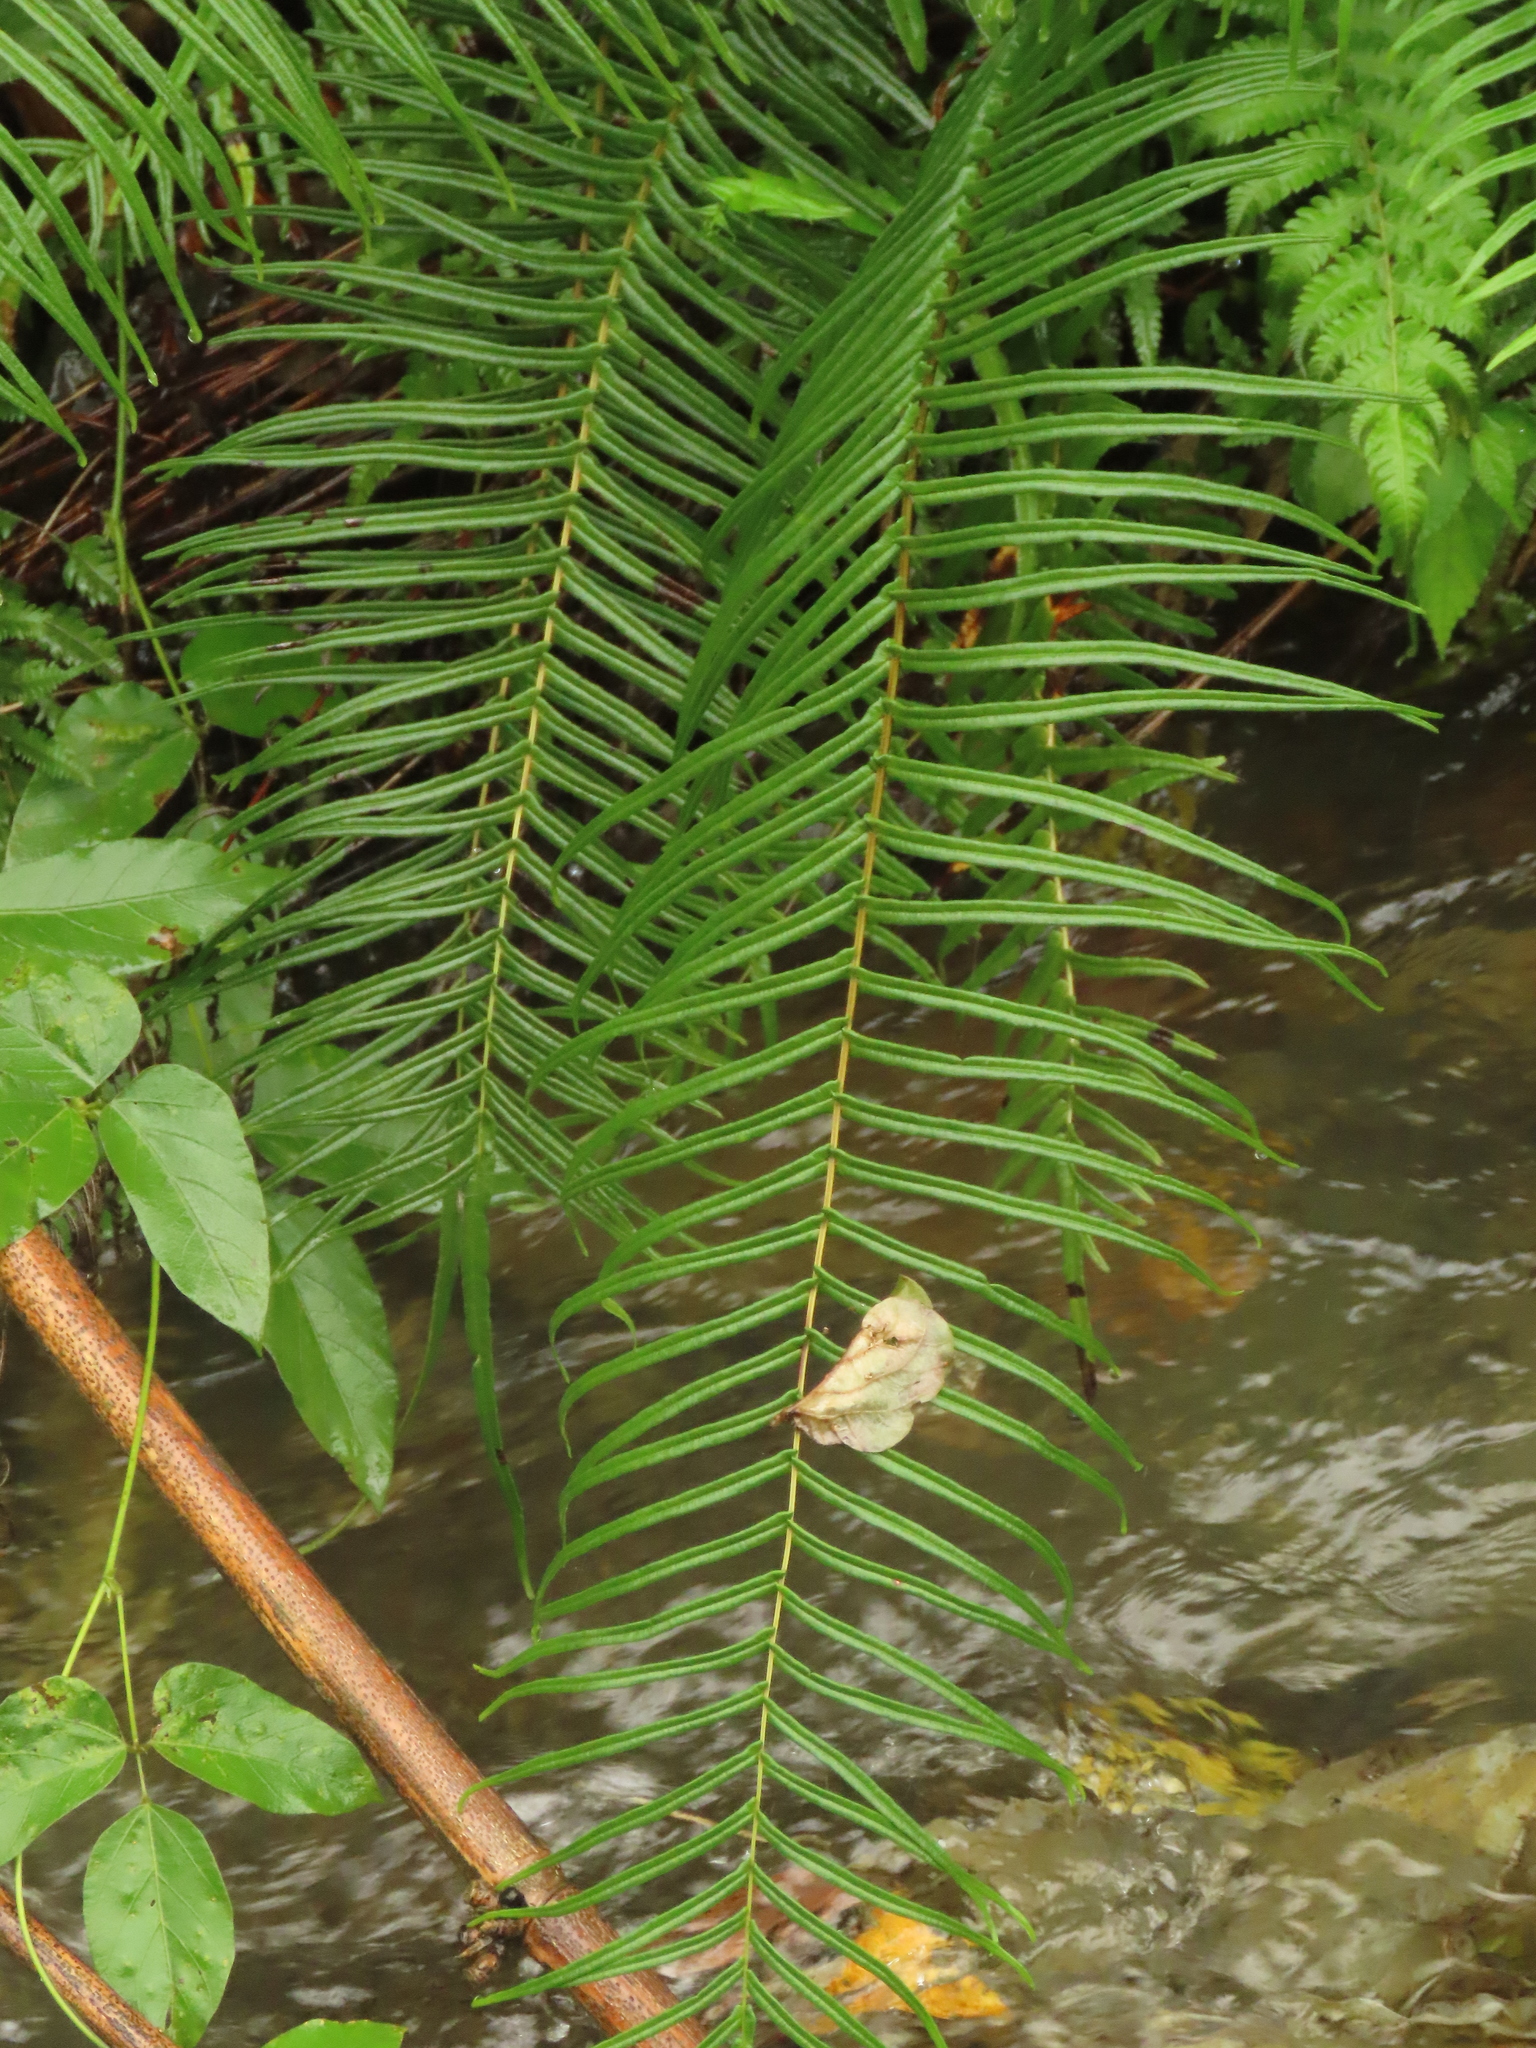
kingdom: Plantae
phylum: Tracheophyta
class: Polypodiopsida
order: Polypodiales
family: Pteridaceae
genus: Pteris
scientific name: Pteris vittata
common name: Ladder brake
